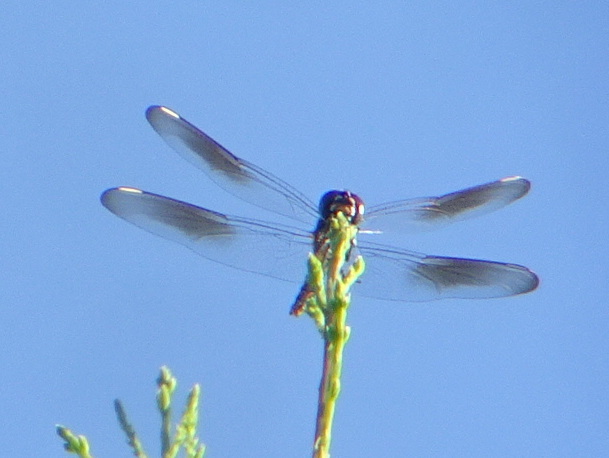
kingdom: Animalia
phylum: Arthropoda
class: Insecta
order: Odonata
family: Libellulidae
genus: Brachymesia
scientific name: Brachymesia gravida
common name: Four-spotted pennant
